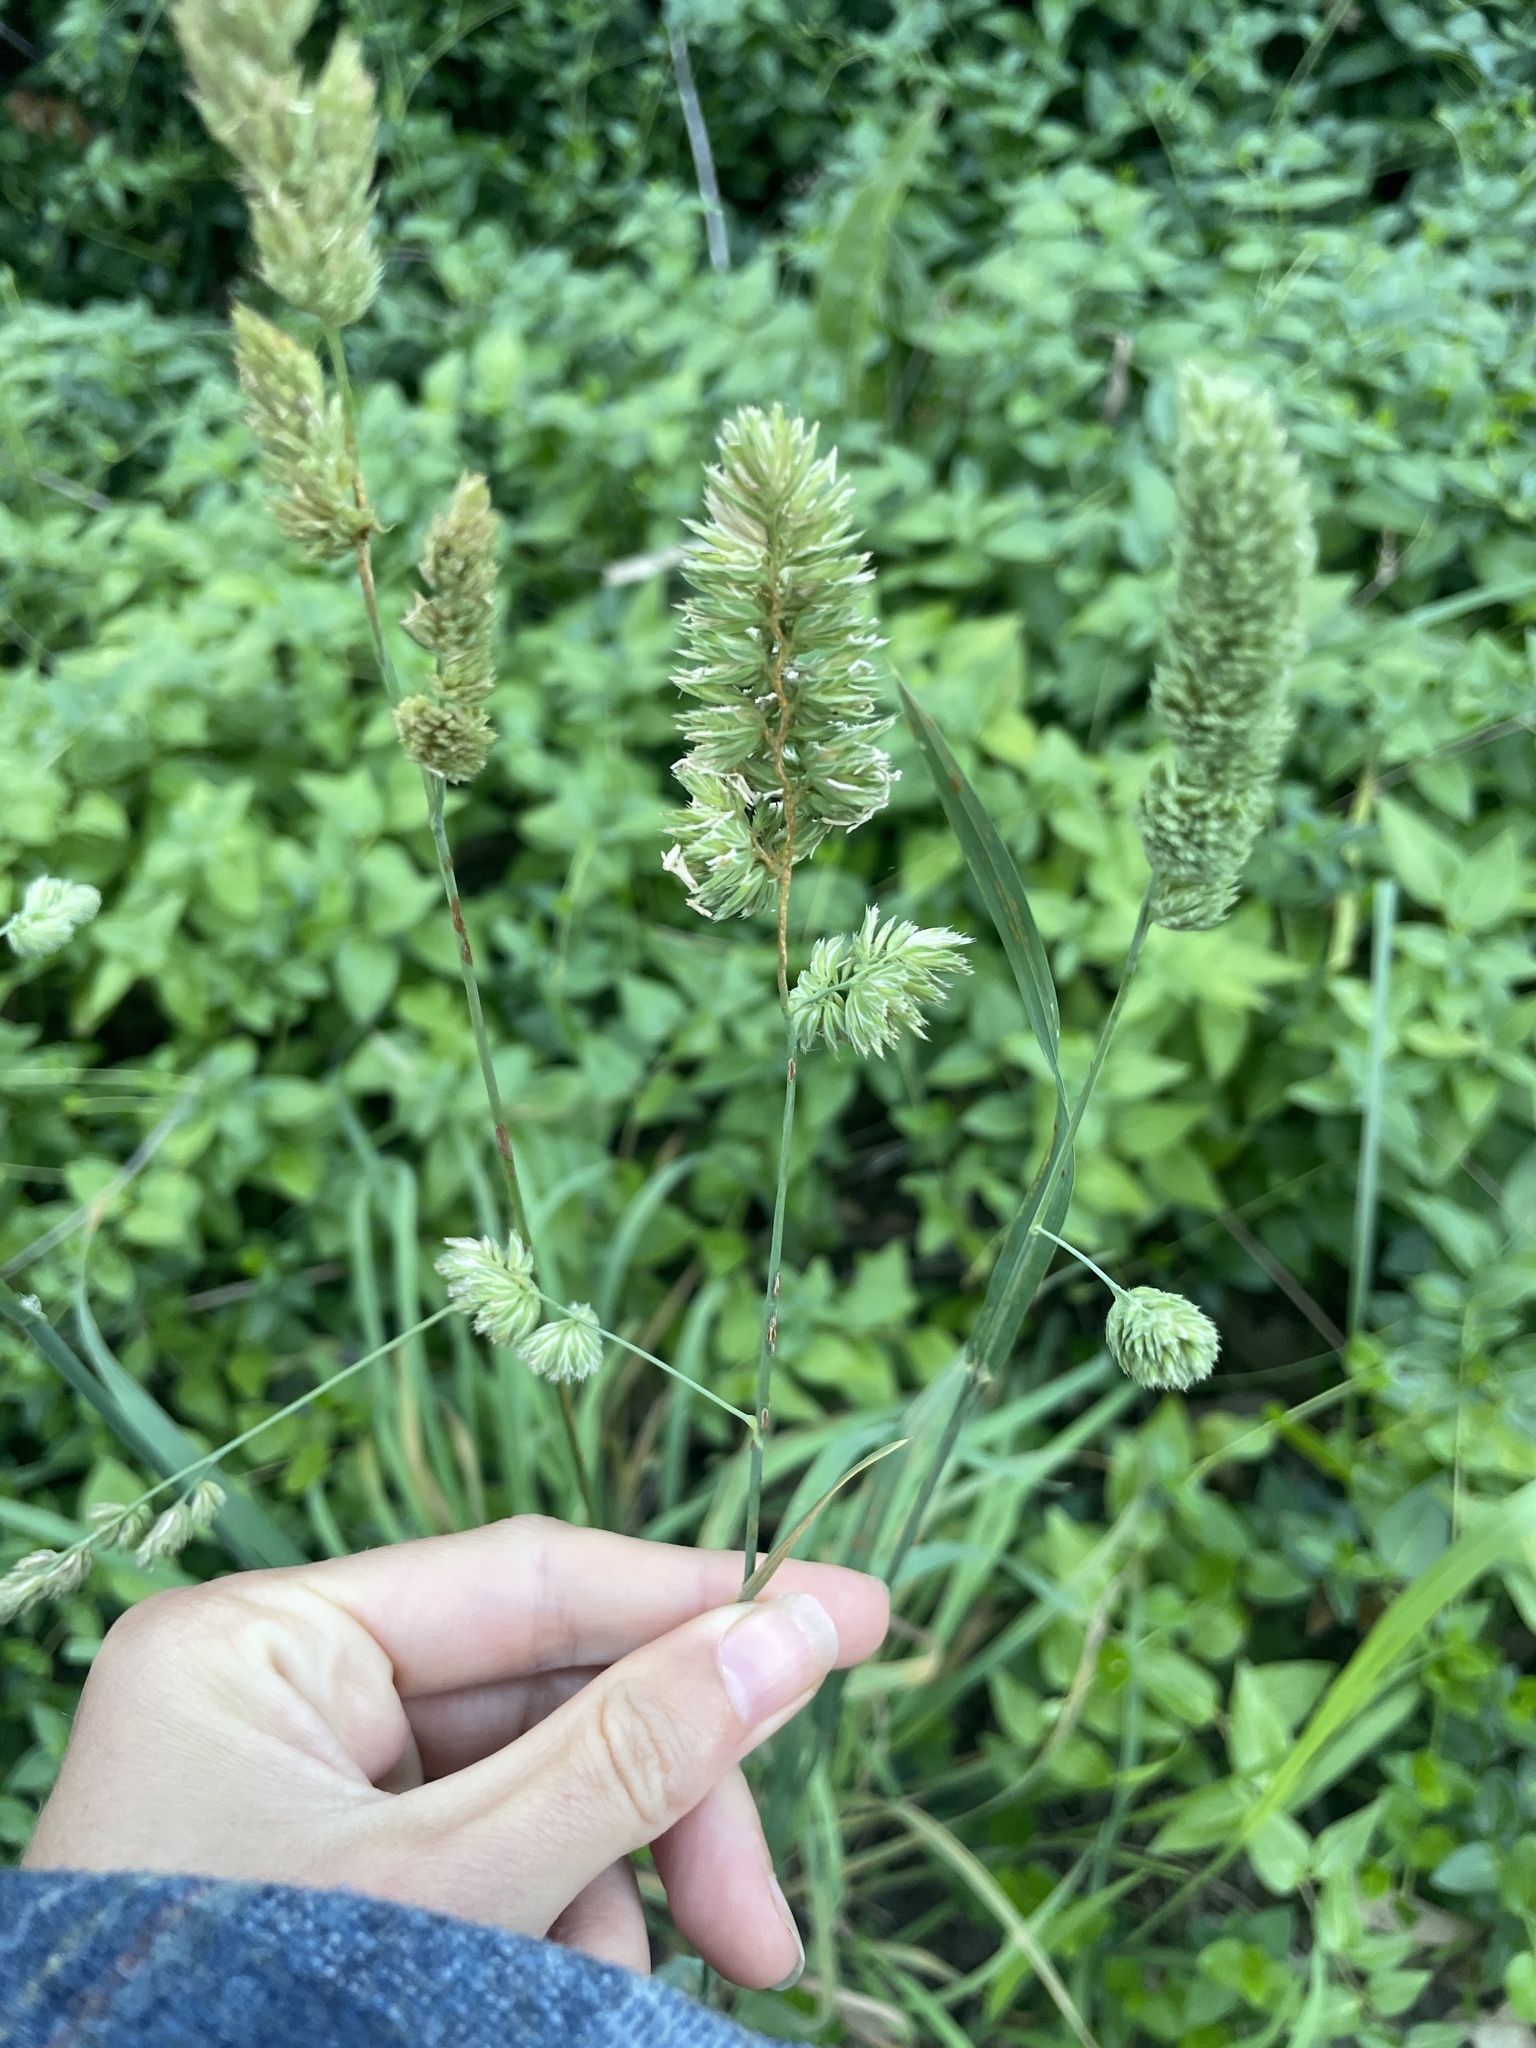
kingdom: Plantae
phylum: Tracheophyta
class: Liliopsida
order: Poales
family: Poaceae
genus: Dactylis
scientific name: Dactylis glomerata
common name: Orchardgrass
